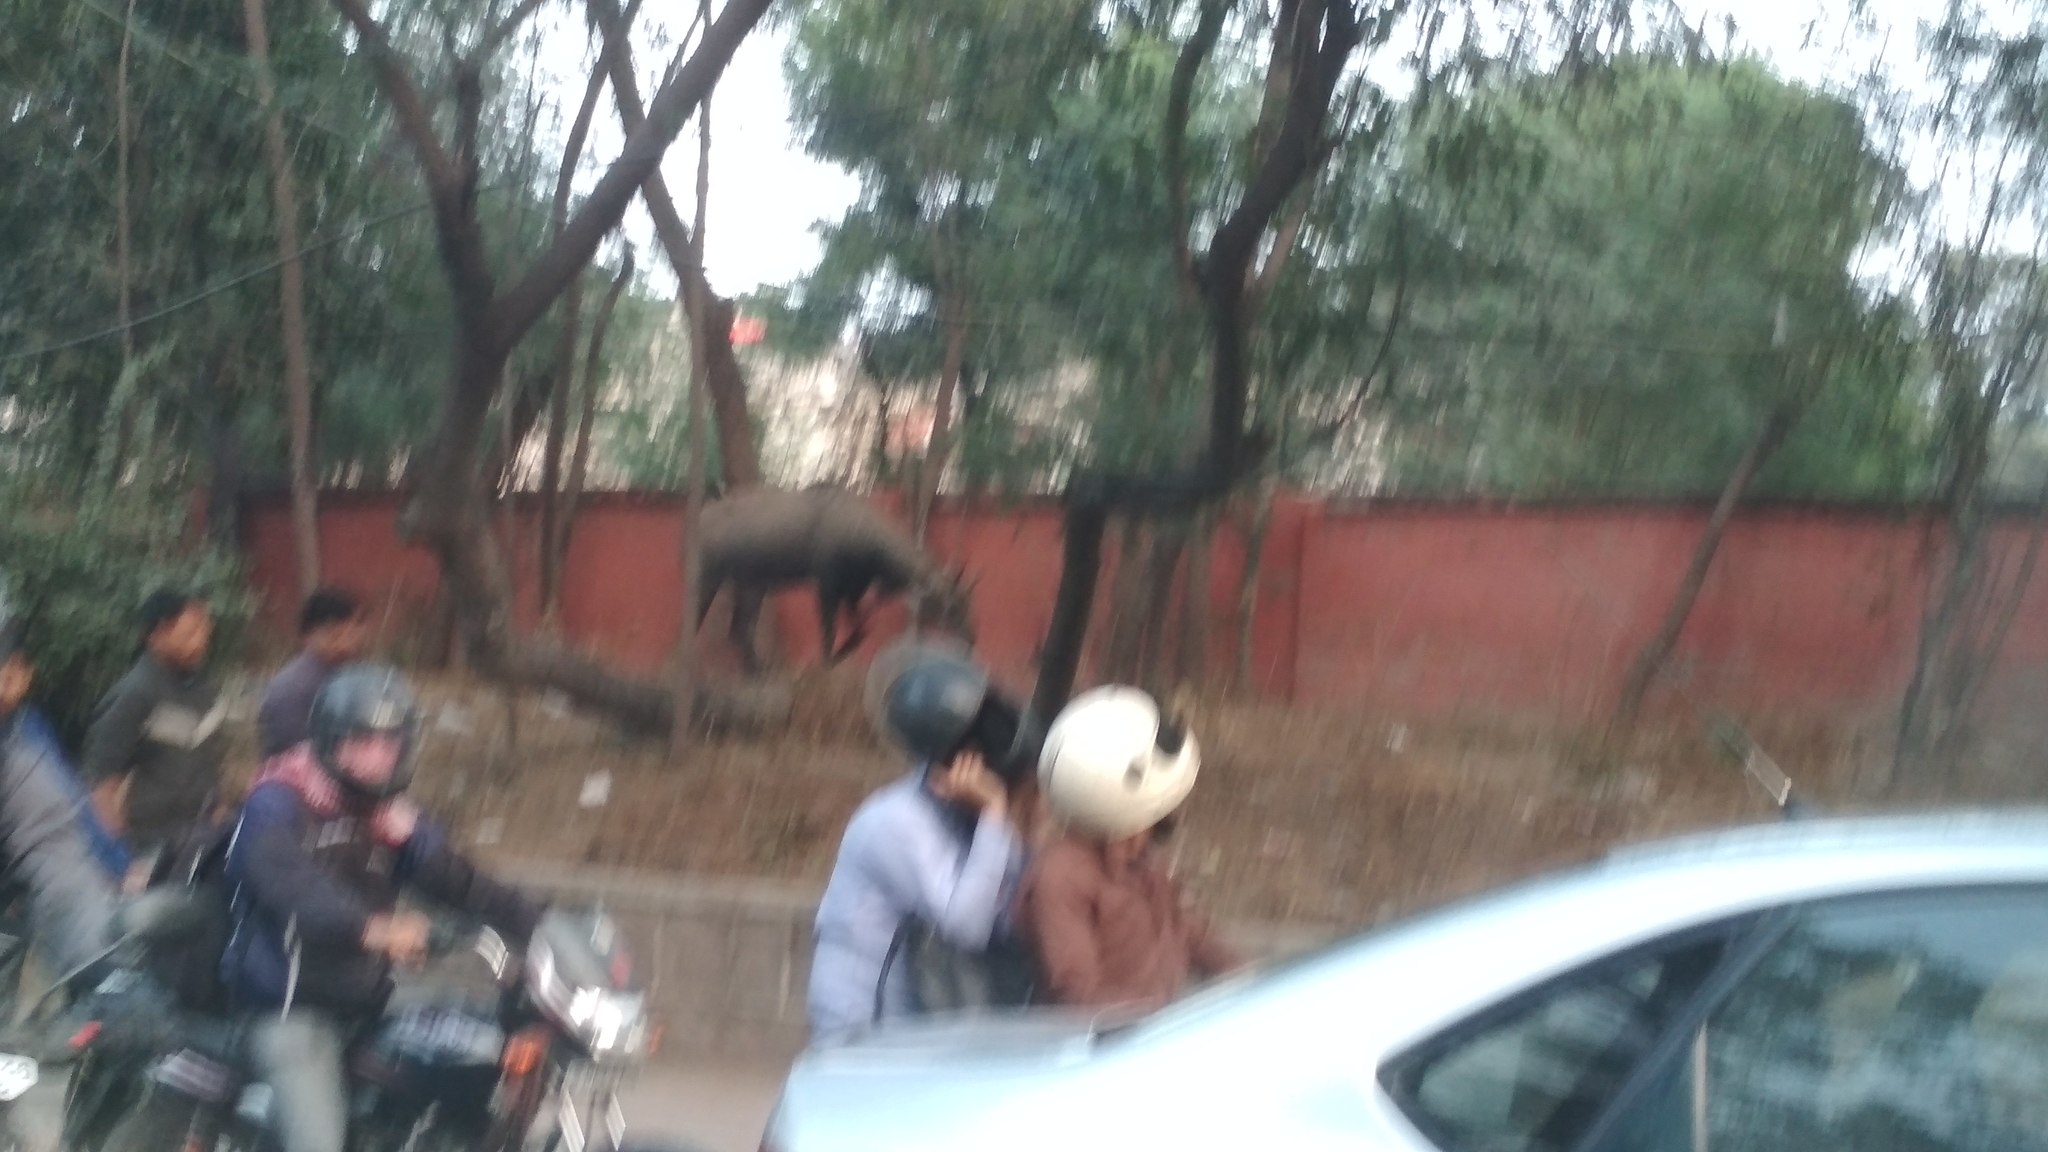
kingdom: Animalia
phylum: Chordata
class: Mammalia
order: Artiodactyla
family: Bovidae
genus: Boselaphus
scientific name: Boselaphus tragocamelus
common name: Nilgai
